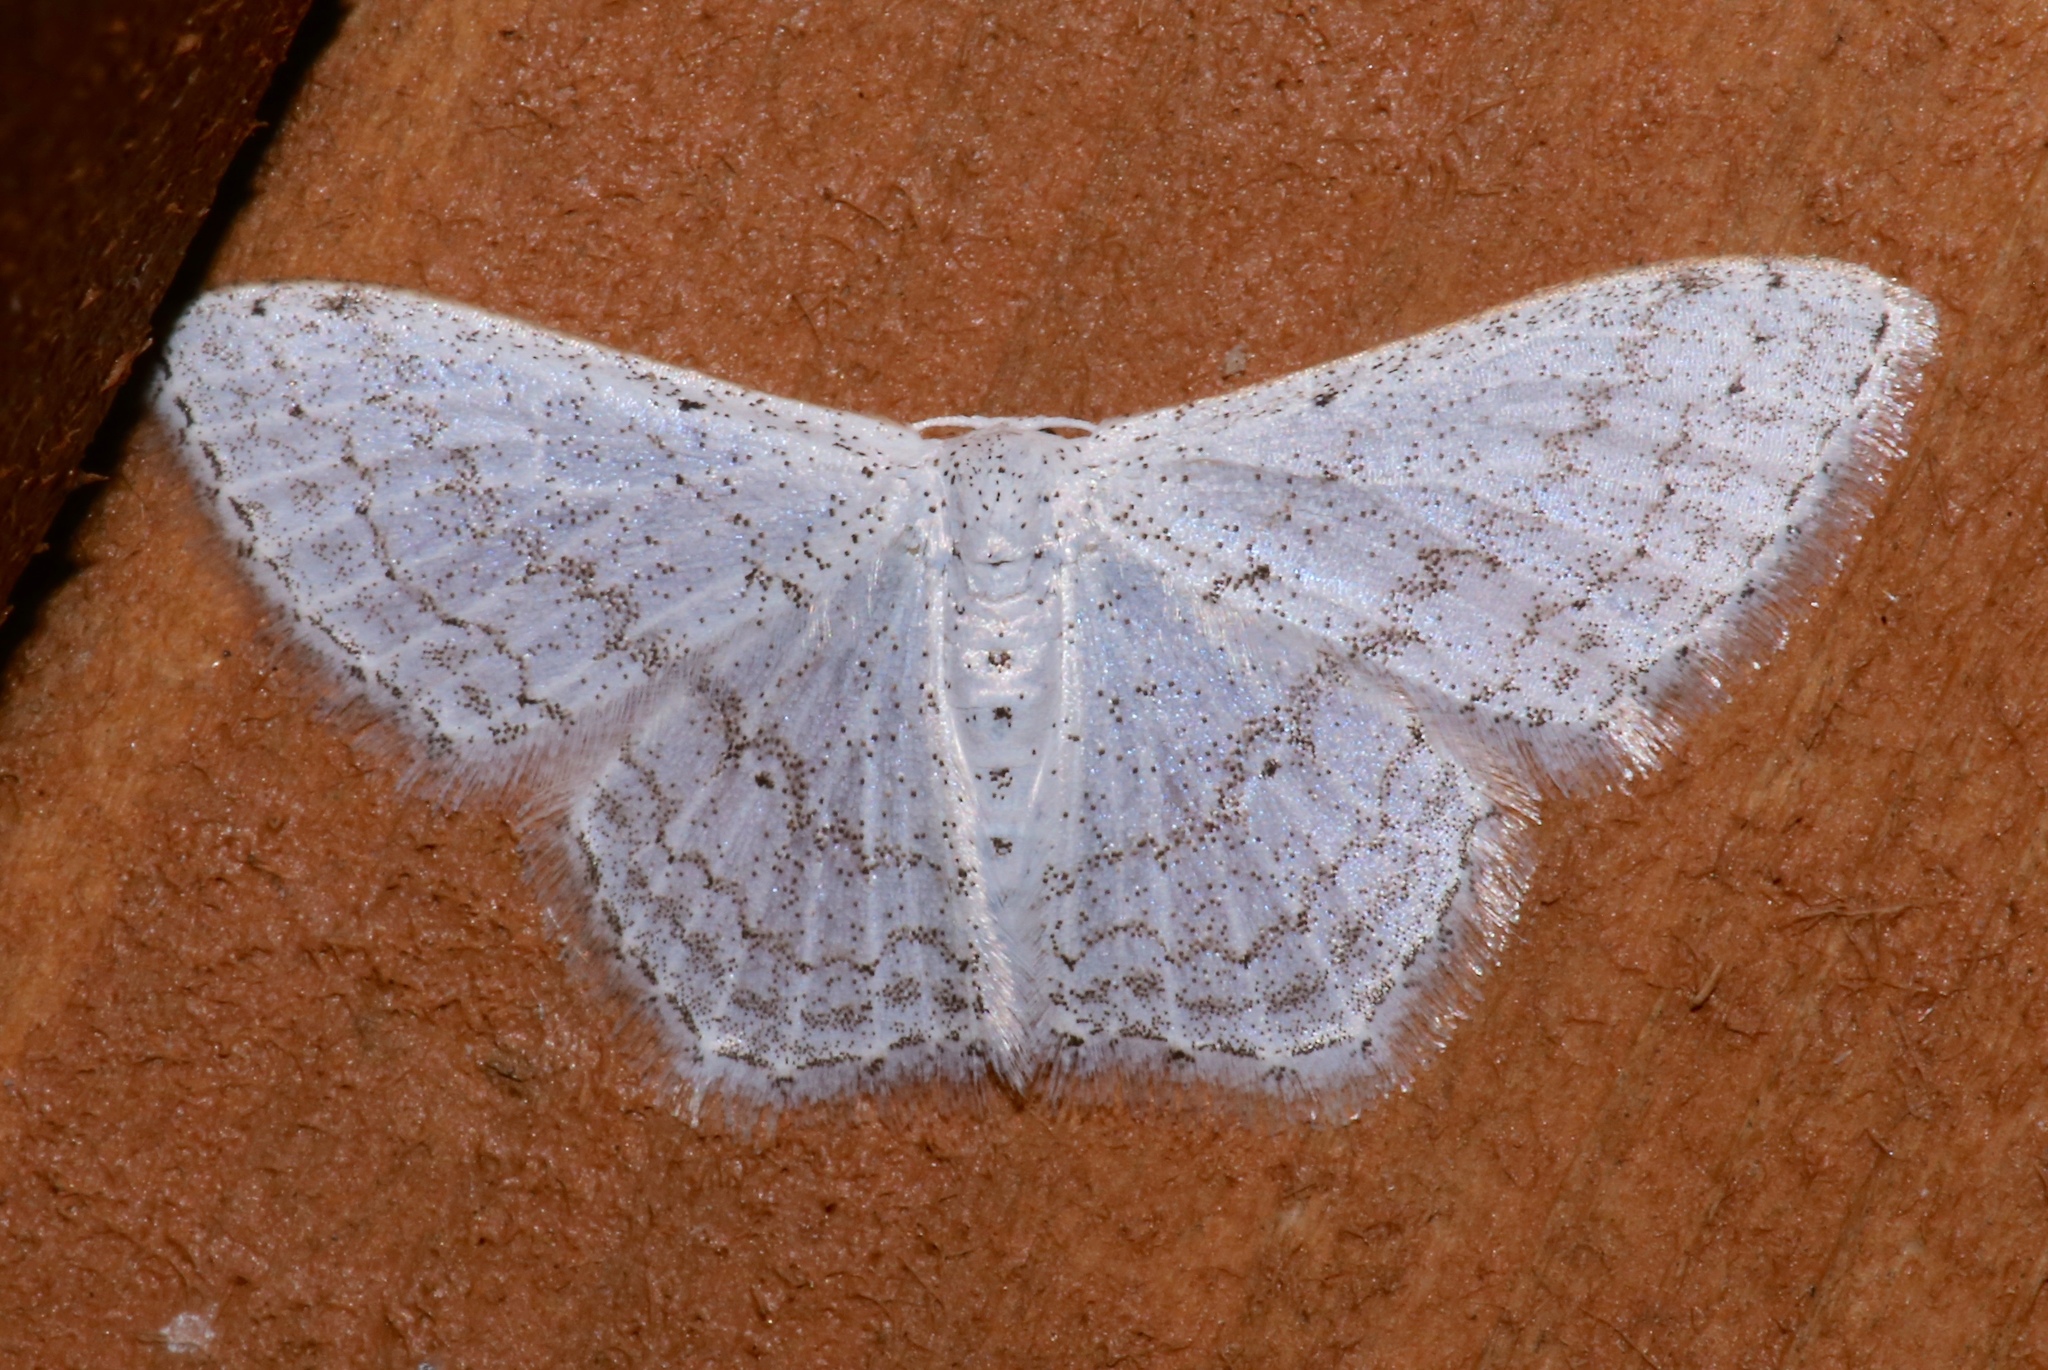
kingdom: Animalia
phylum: Arthropoda
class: Insecta
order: Lepidoptera
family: Geometridae
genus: Idaea
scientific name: Idaea tacturata
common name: Dot-lined wave
